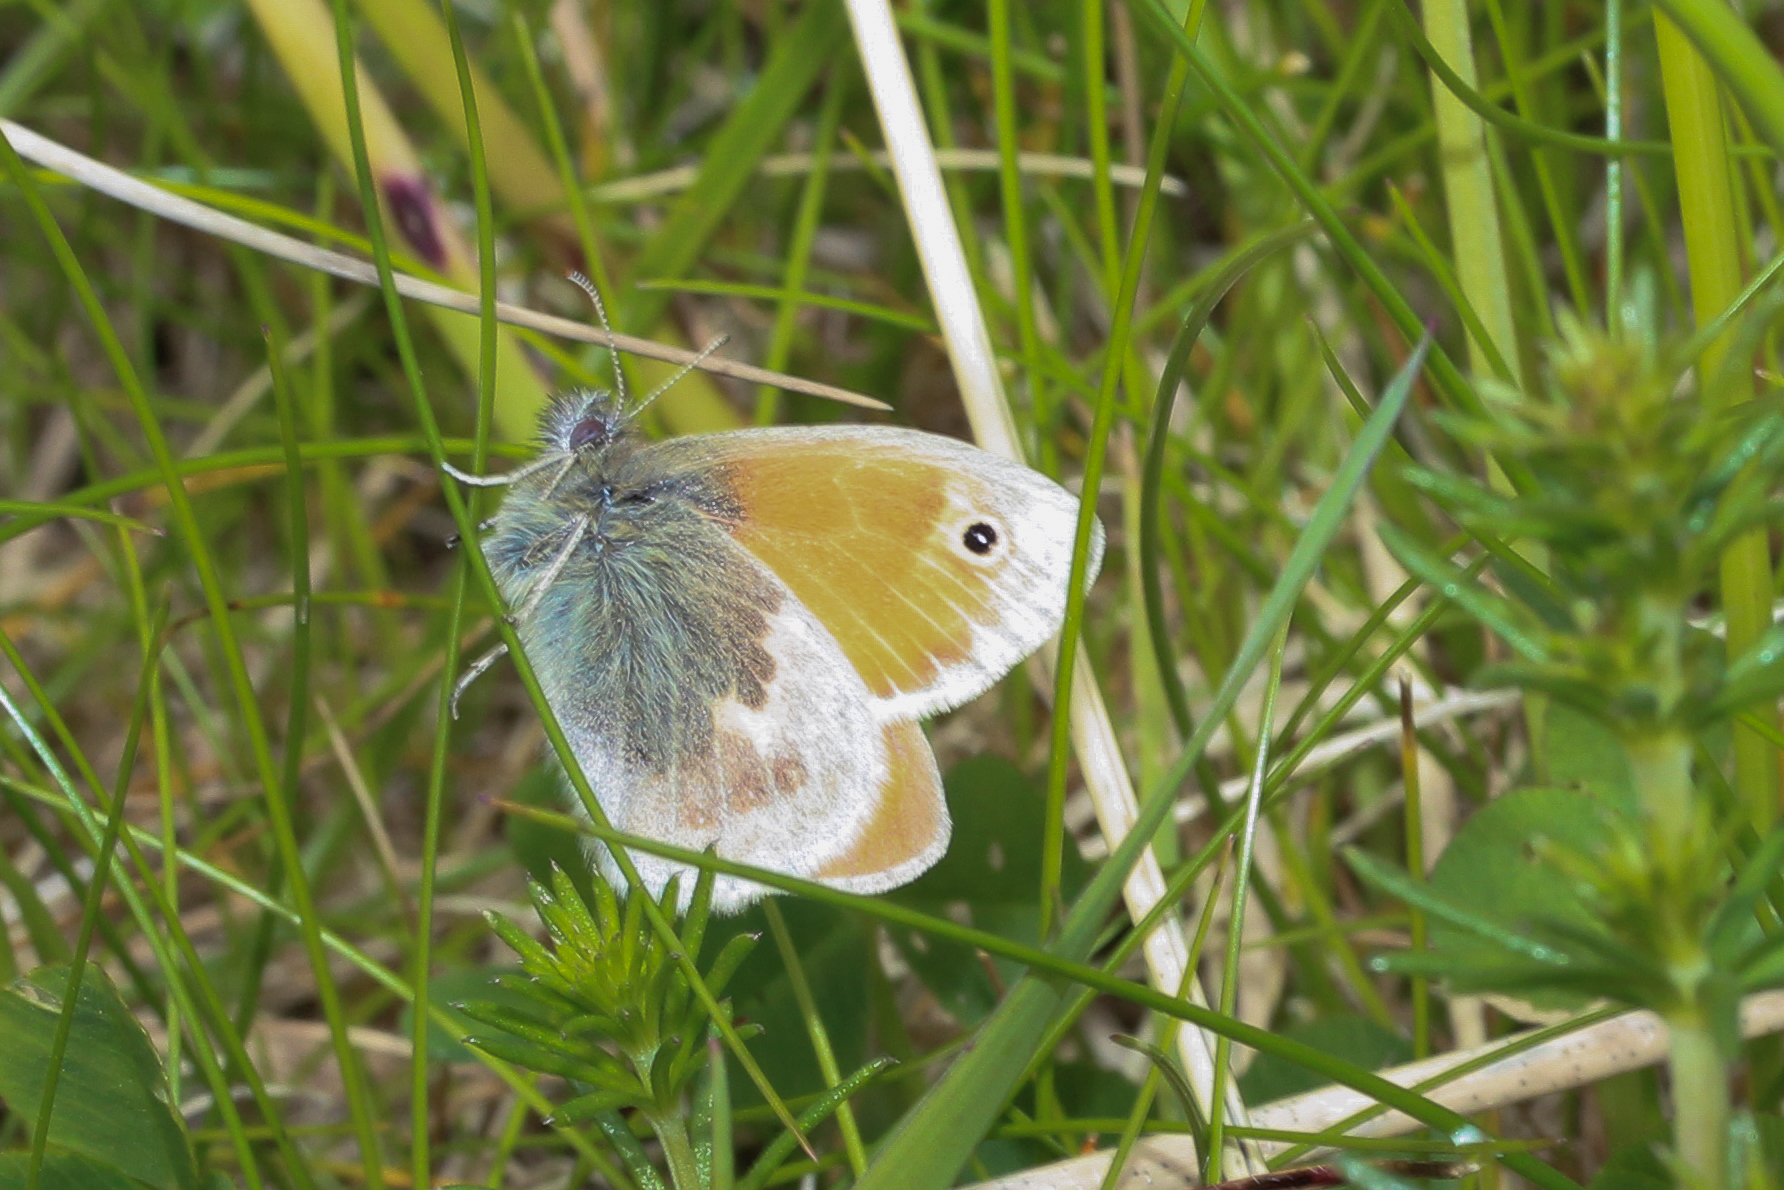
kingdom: Animalia
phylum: Arthropoda
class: Insecta
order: Lepidoptera
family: Nymphalidae
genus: Coenonympha
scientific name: Coenonympha pamphilus
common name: Small heath
